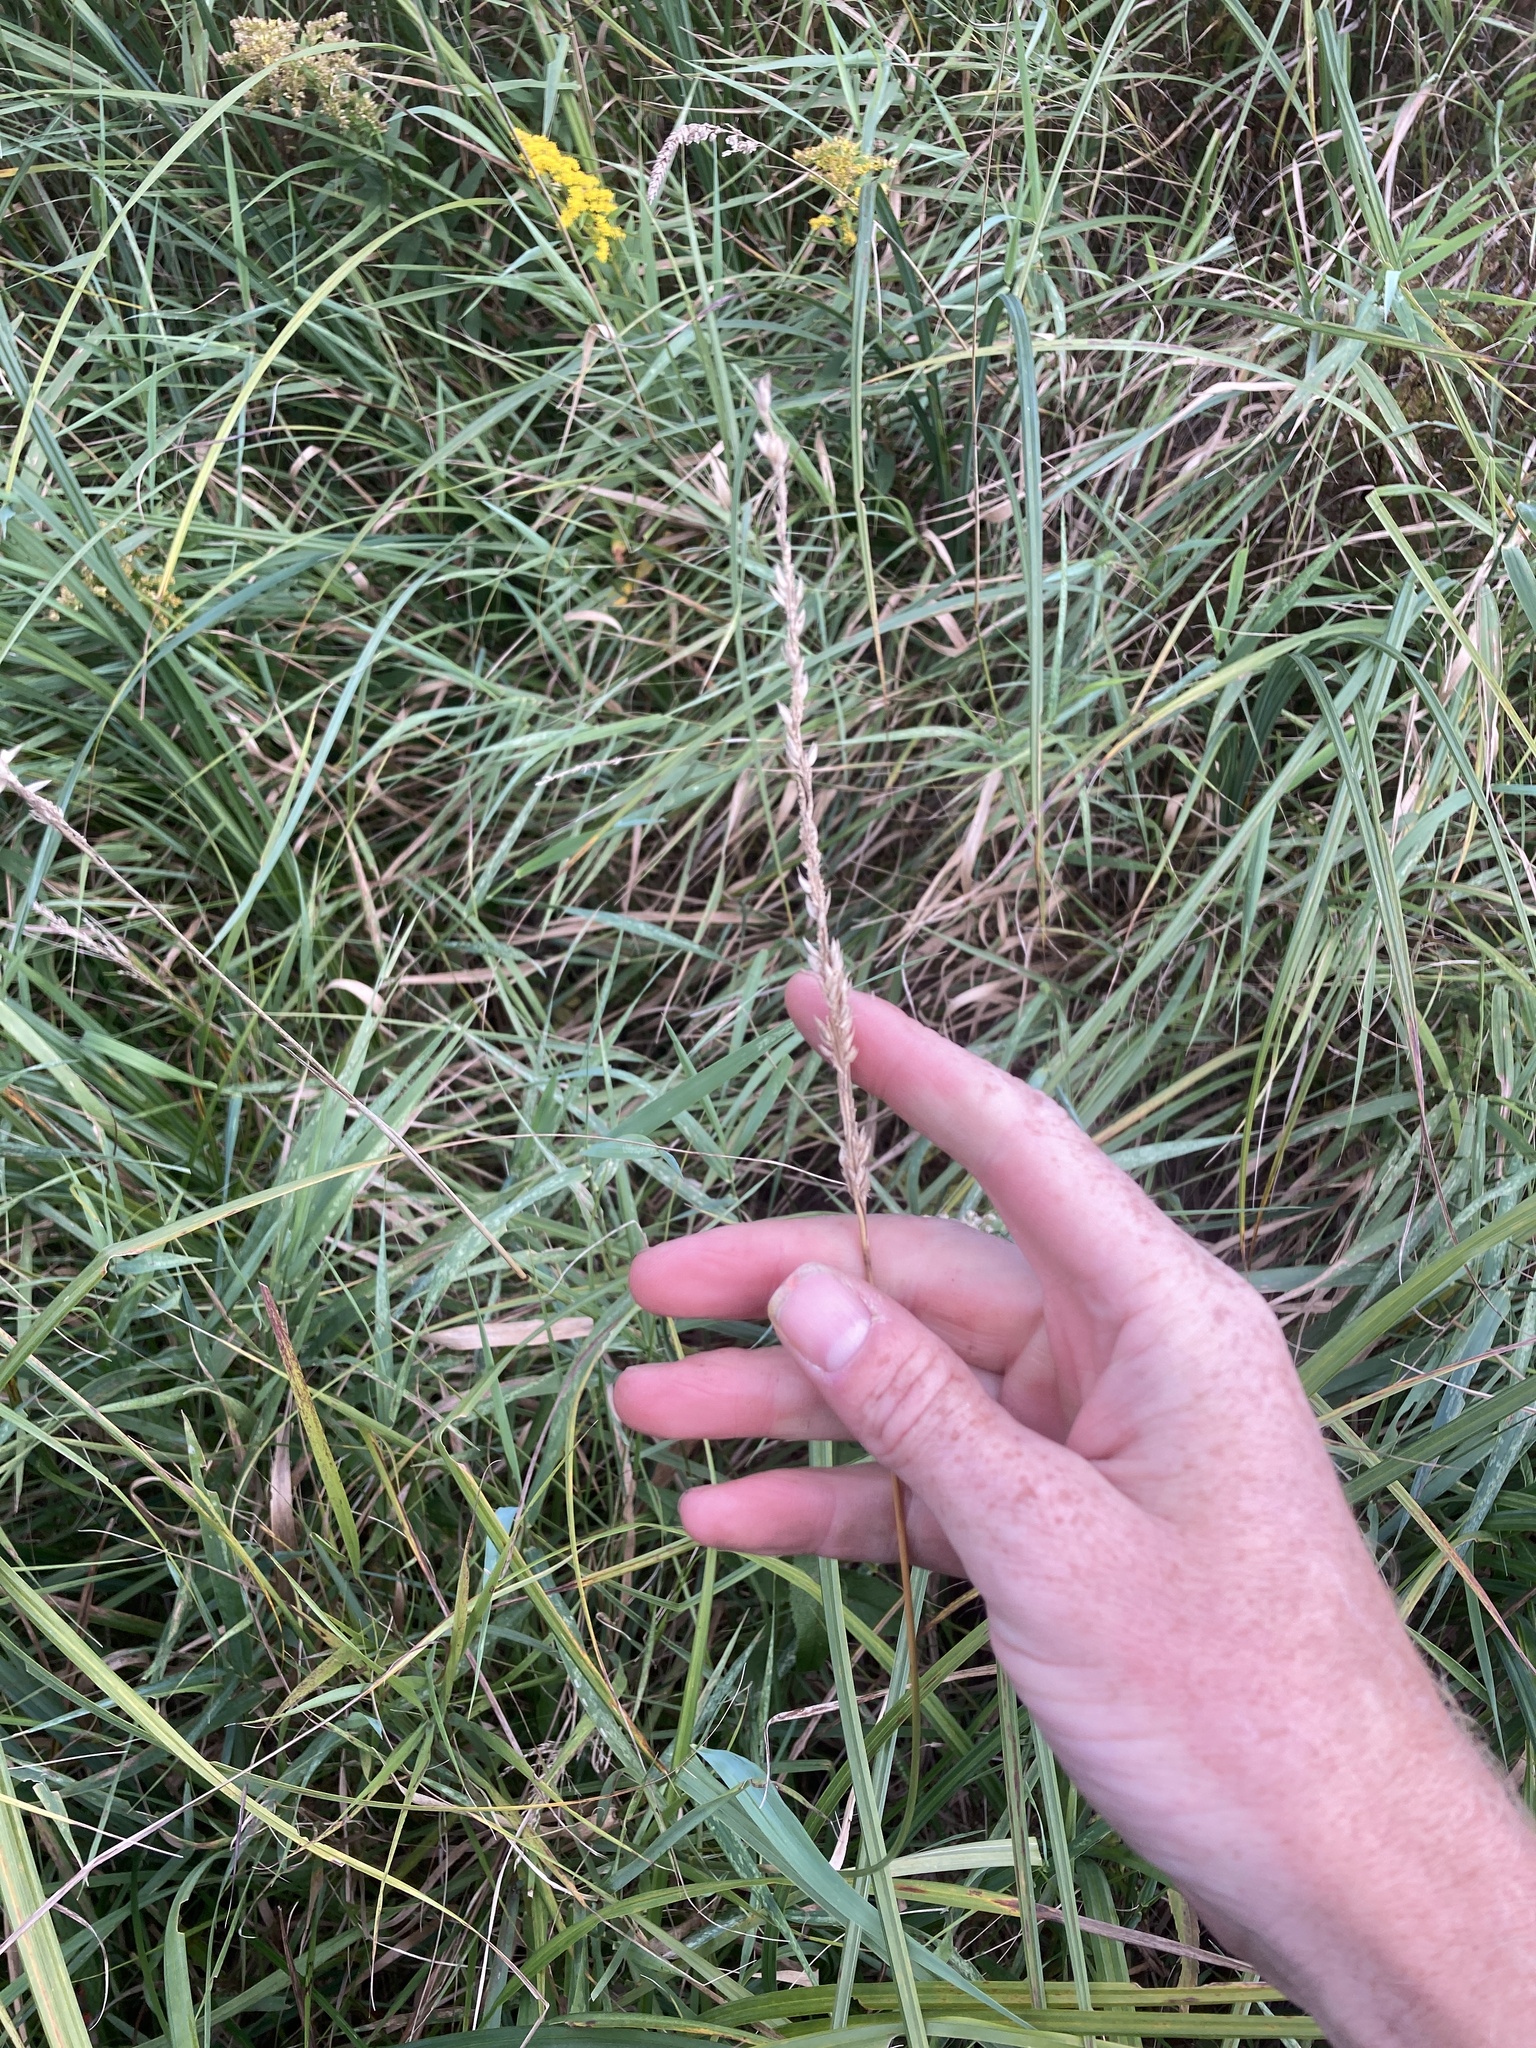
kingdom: Plantae
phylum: Tracheophyta
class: Liliopsida
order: Poales
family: Poaceae
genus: Phalaris
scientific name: Phalaris arundinacea
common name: Reed canary-grass
